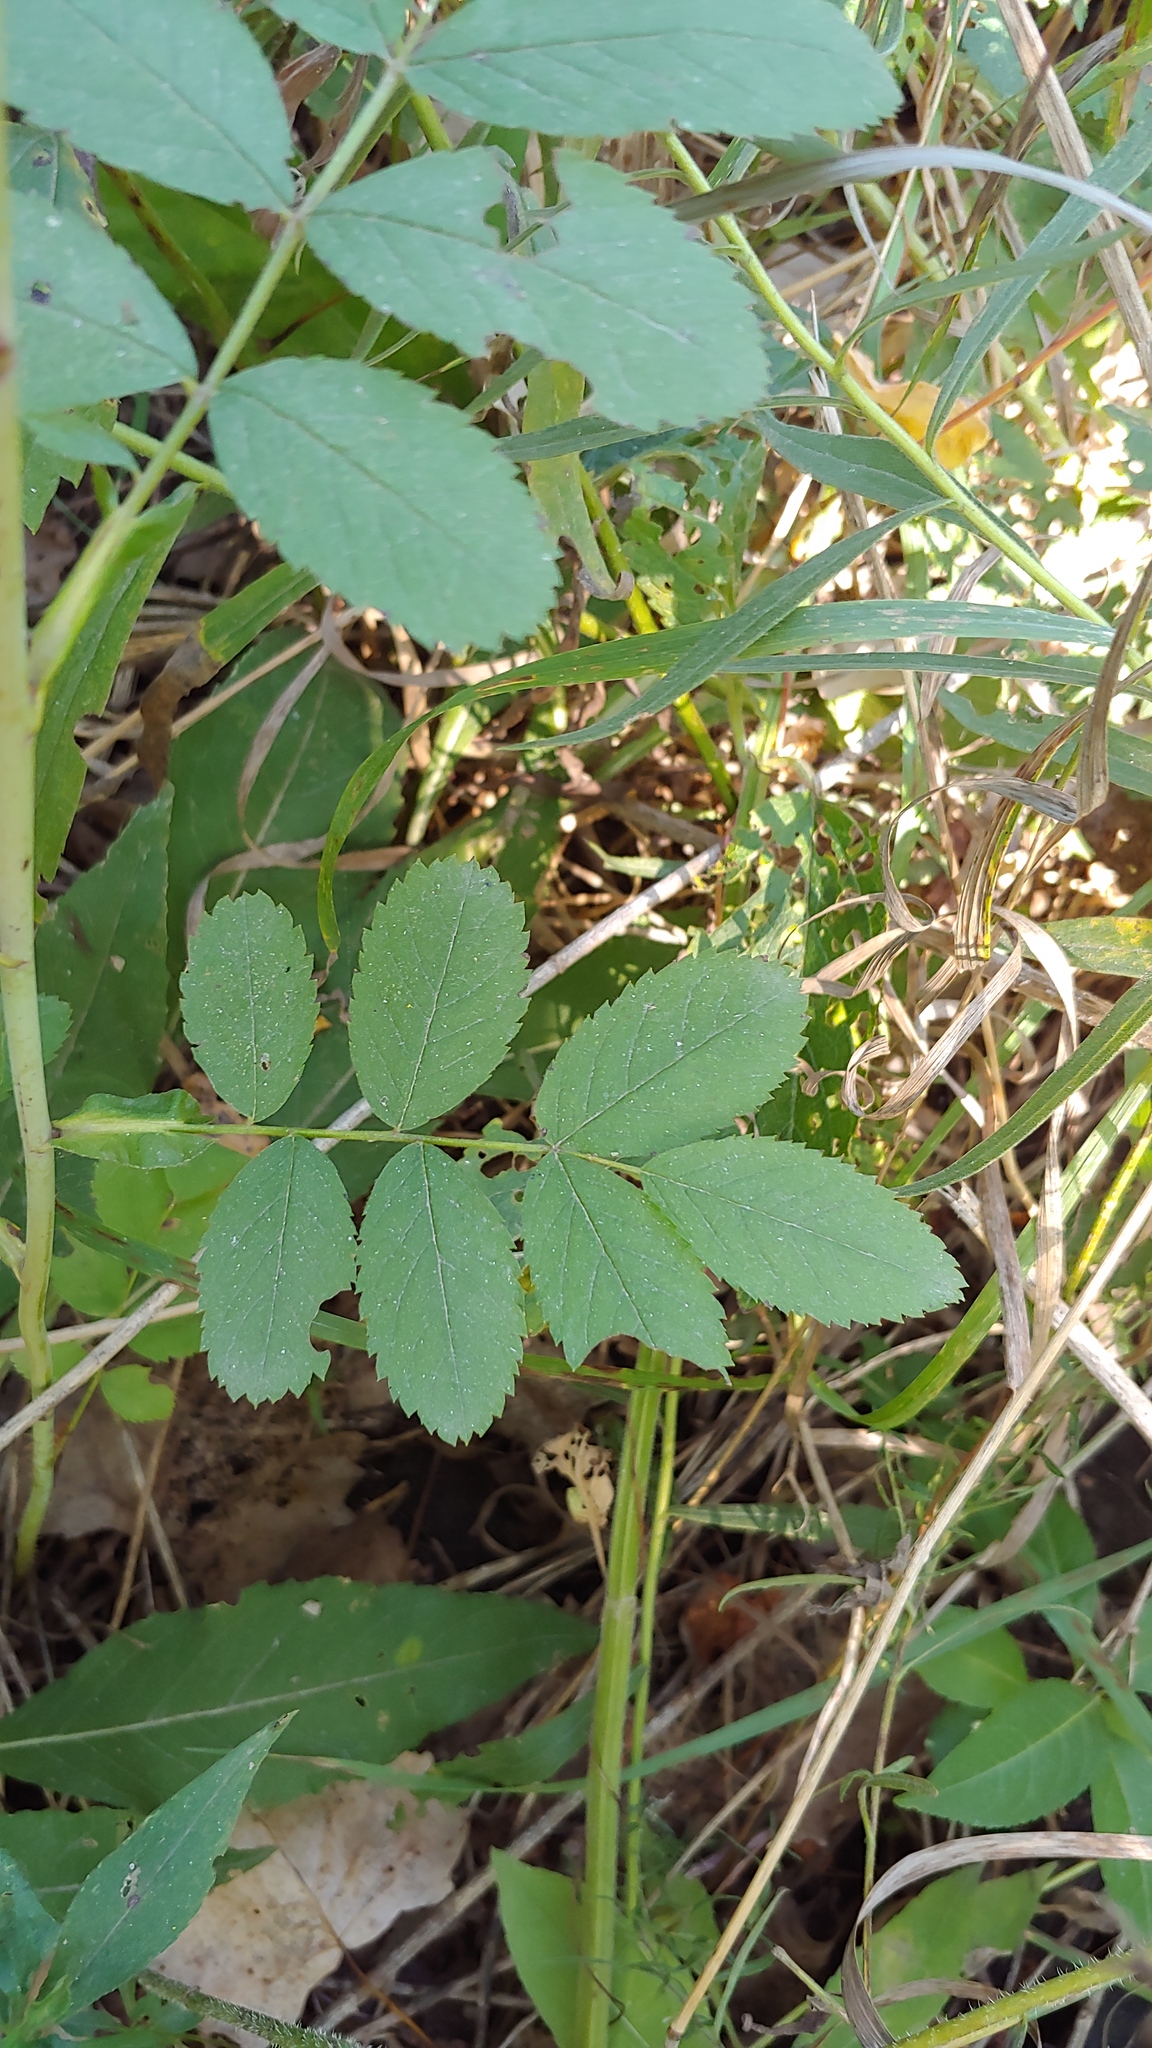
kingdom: Plantae
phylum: Tracheophyta
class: Magnoliopsida
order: Rosales
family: Rosaceae
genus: Rosa
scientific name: Rosa blanda
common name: Smooth rose
